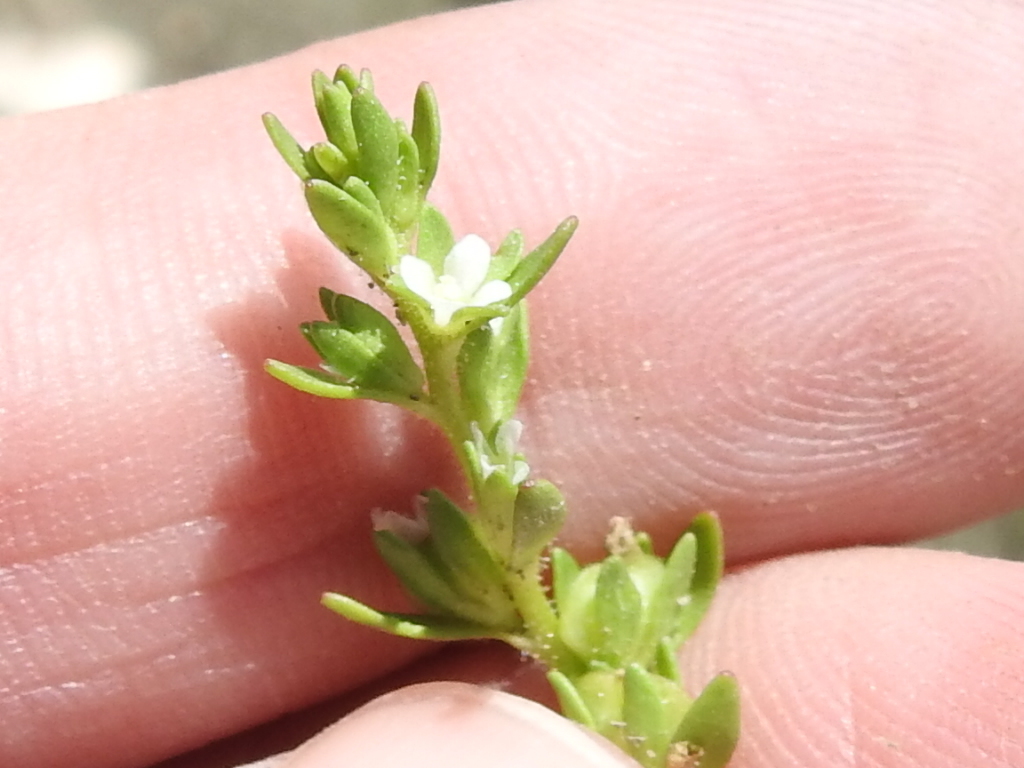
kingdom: Plantae
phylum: Tracheophyta
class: Magnoliopsida
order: Lamiales
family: Plantaginaceae
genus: Veronica
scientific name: Veronica peregrina
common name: Neckweed
